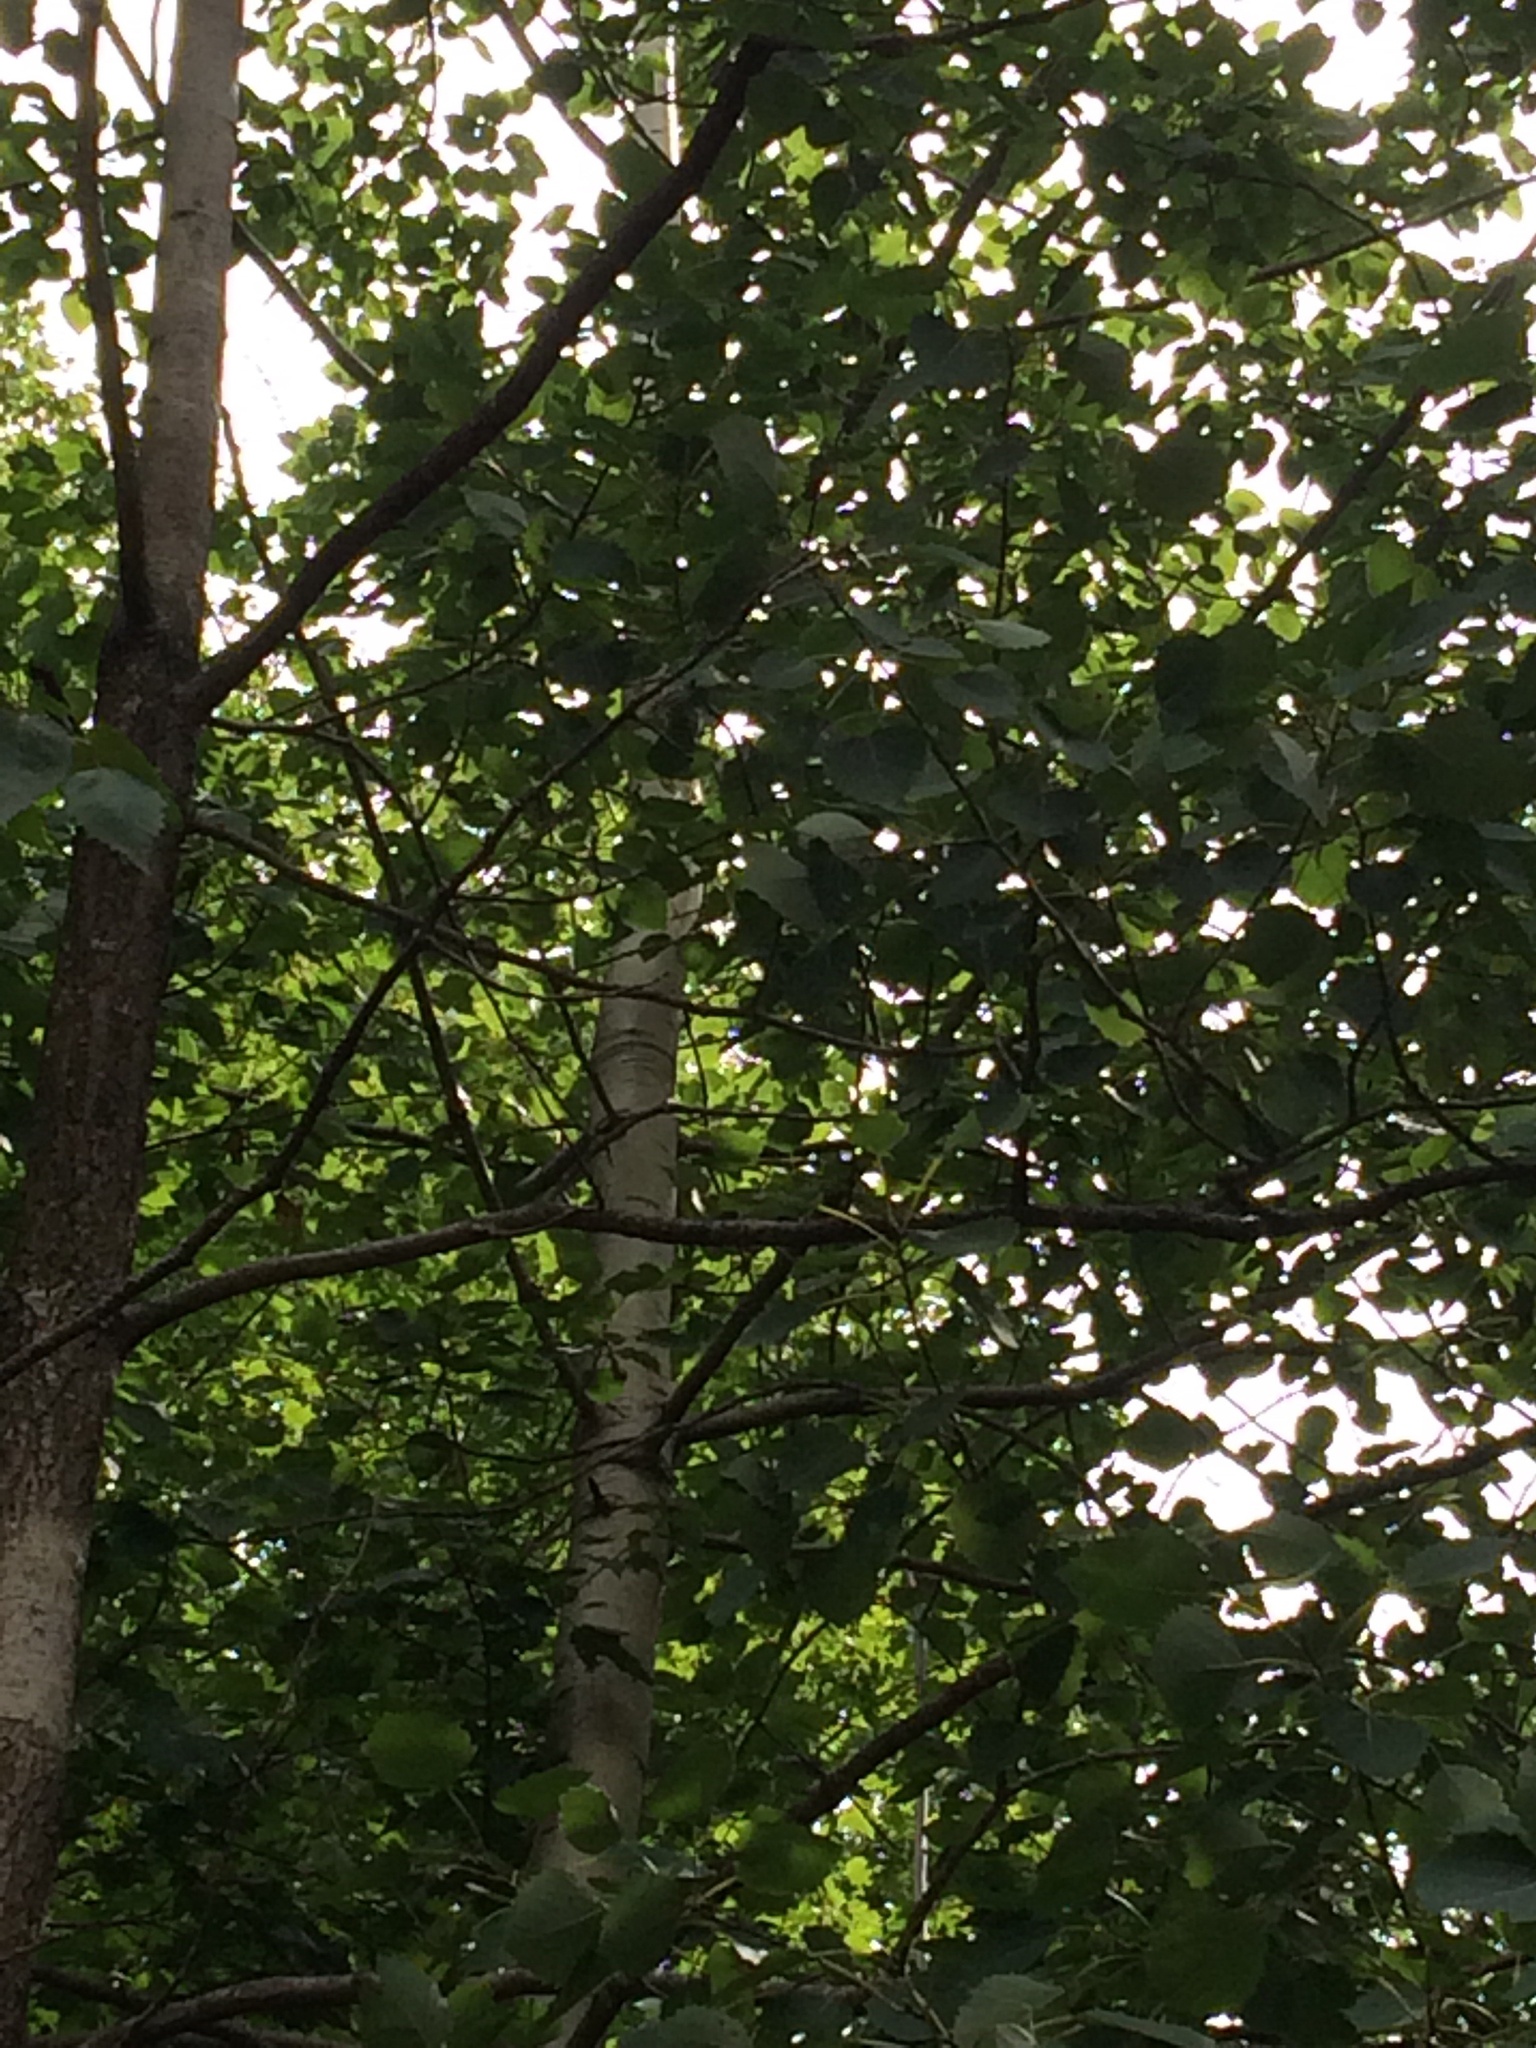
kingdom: Plantae
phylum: Tracheophyta
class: Magnoliopsida
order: Malpighiales
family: Salicaceae
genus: Populus
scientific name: Populus grandidentata
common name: Bigtooth aspen
